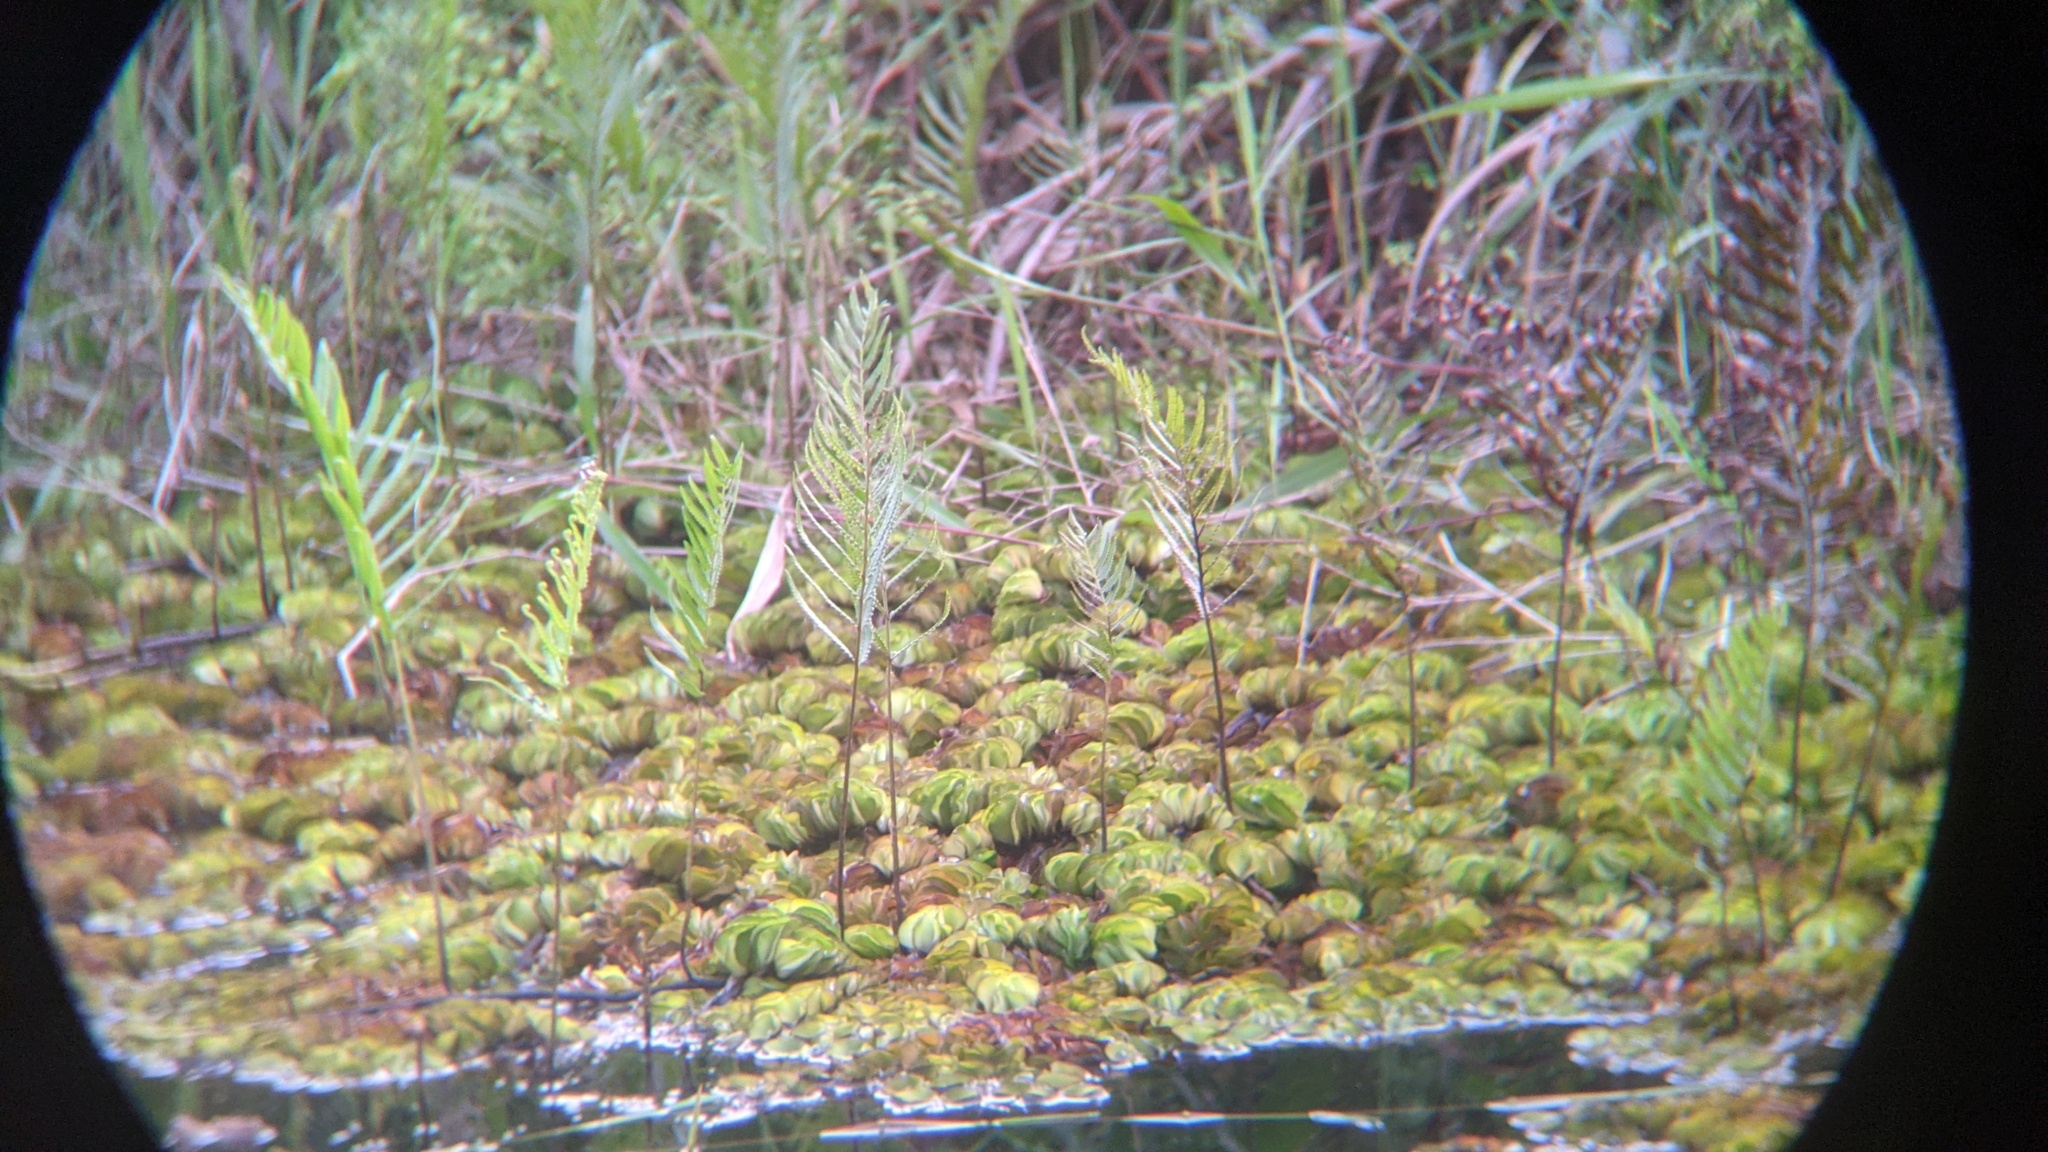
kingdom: Plantae
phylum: Tracheophyta
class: Polypodiopsida
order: Polypodiales
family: Thelypteridaceae
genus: Cyclosorus
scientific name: Cyclosorus interruptus
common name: Neke fern
